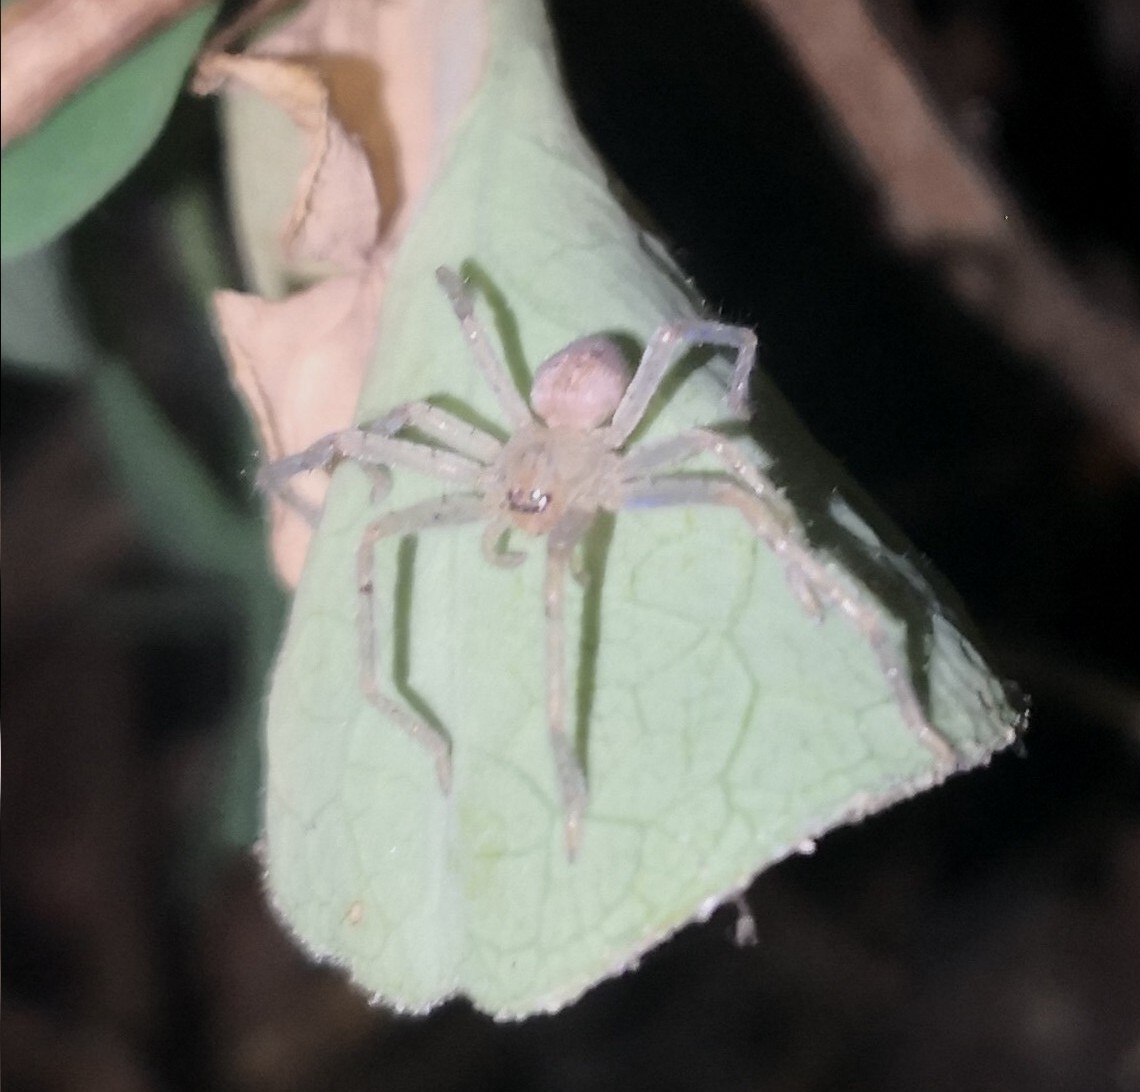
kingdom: Animalia
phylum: Arthropoda
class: Arachnida
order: Araneae
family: Sparassidae
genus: Olios
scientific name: Olios argelasius
